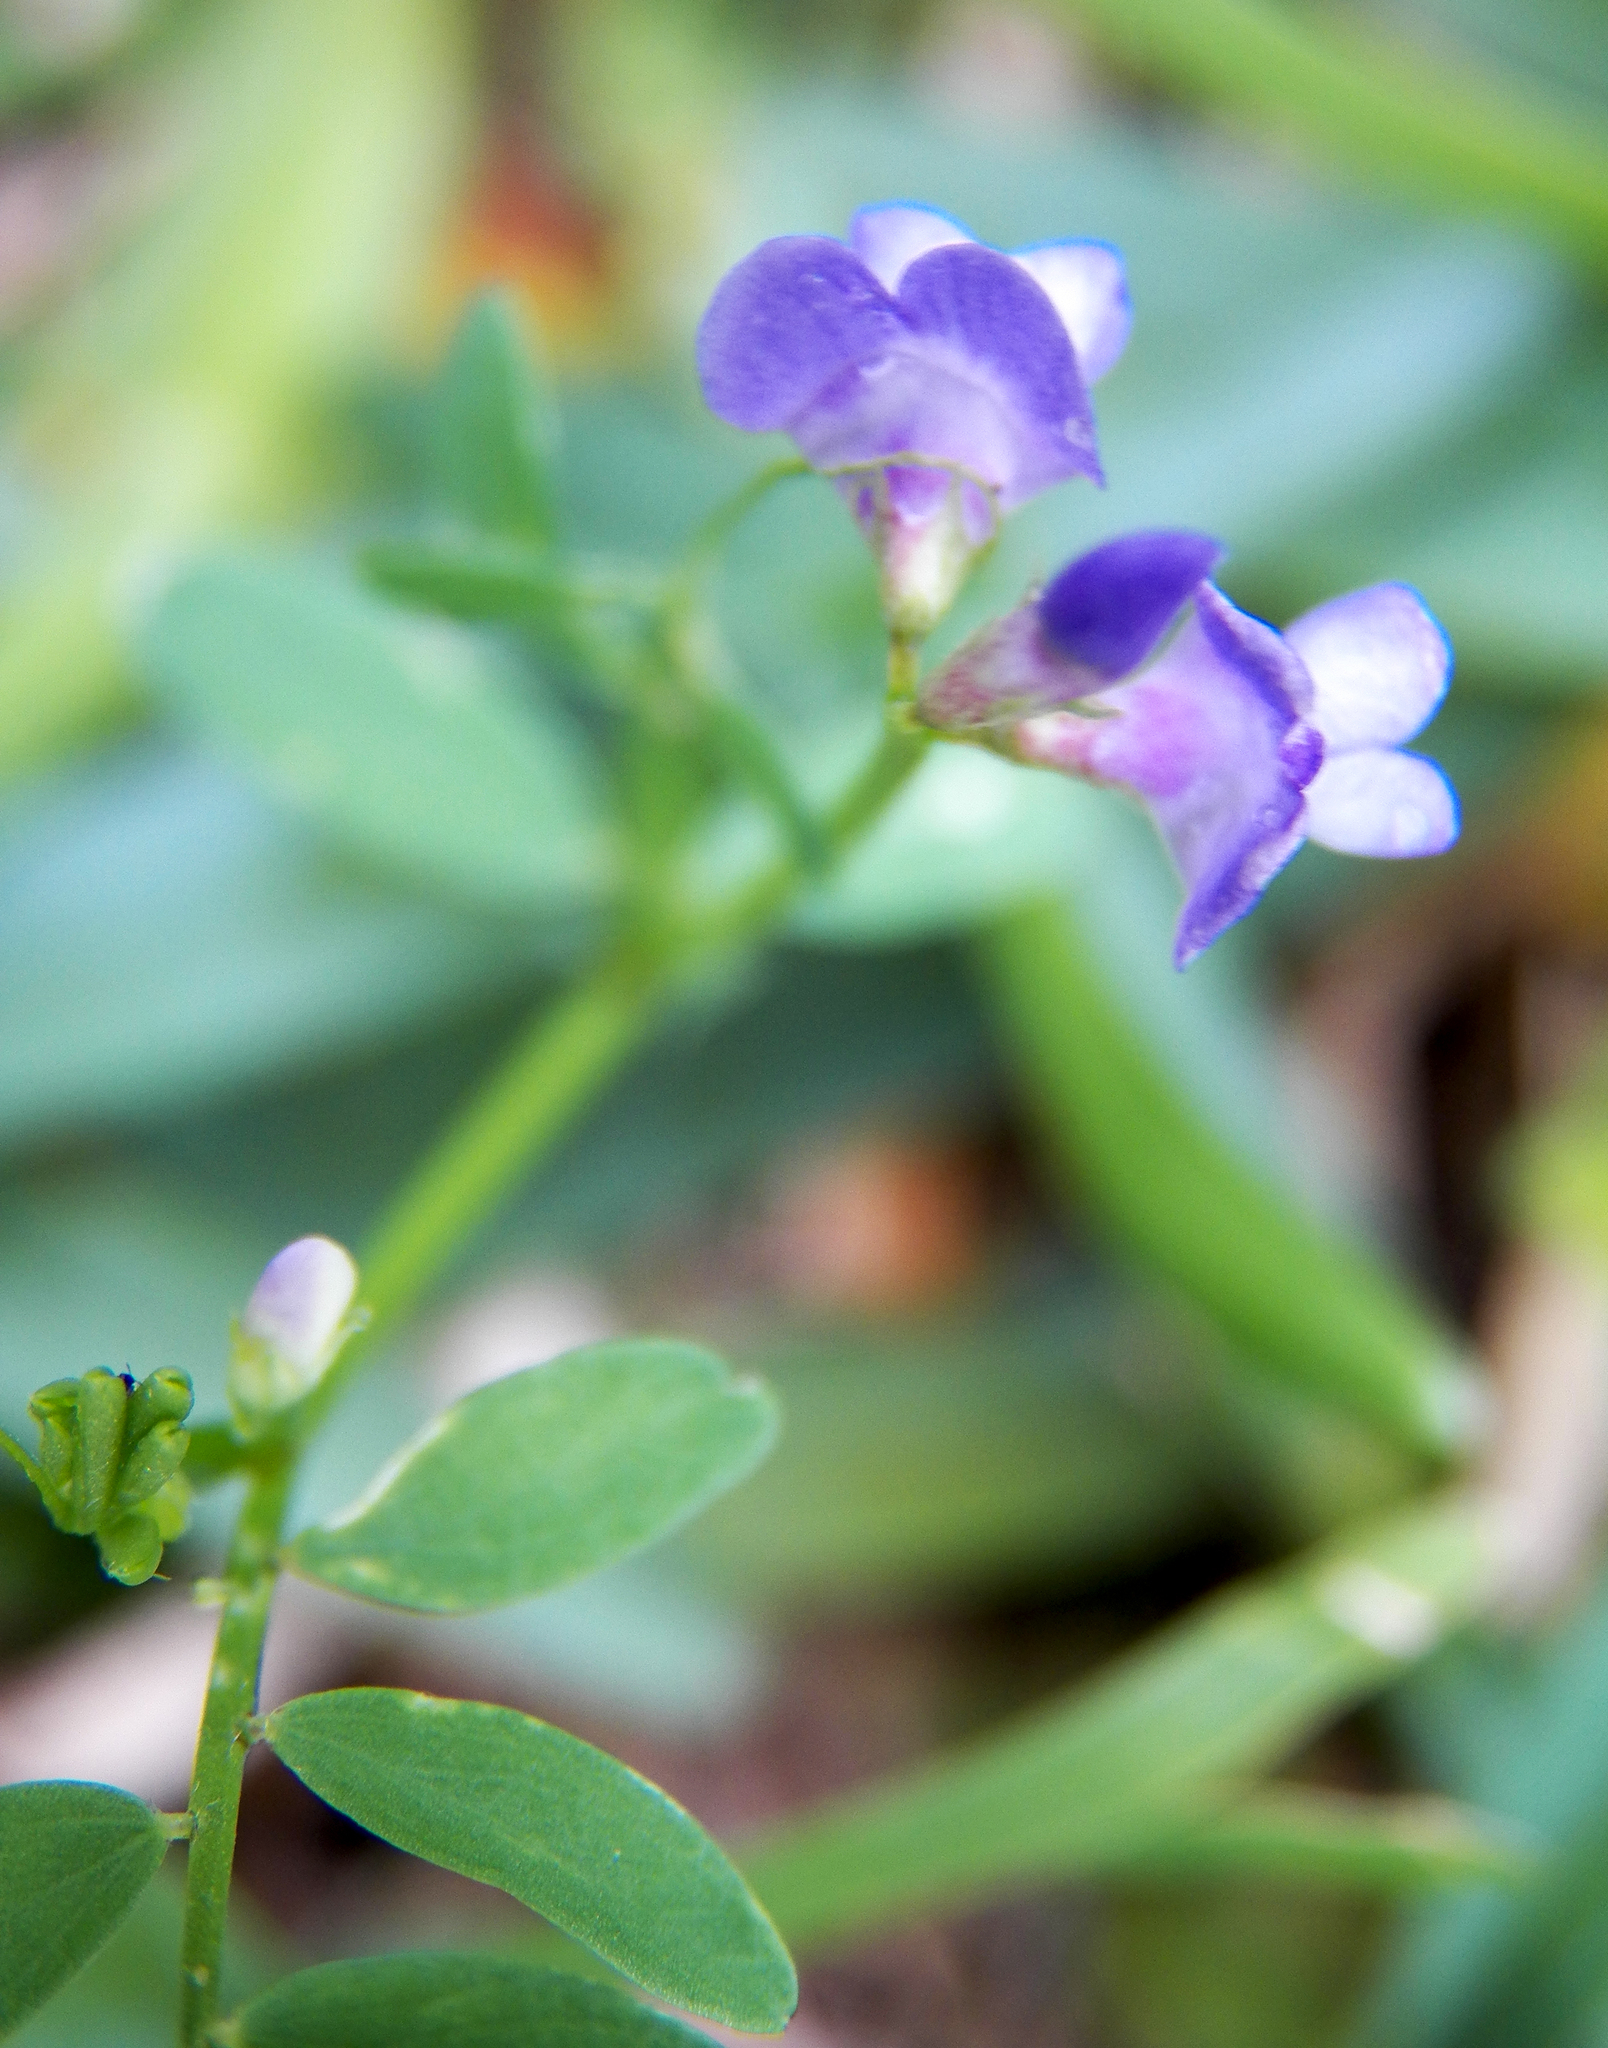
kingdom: Plantae
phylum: Tracheophyta
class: Magnoliopsida
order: Fabales
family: Fabaceae
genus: Vicia
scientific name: Vicia ludoviciana
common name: Louisiana vetch
